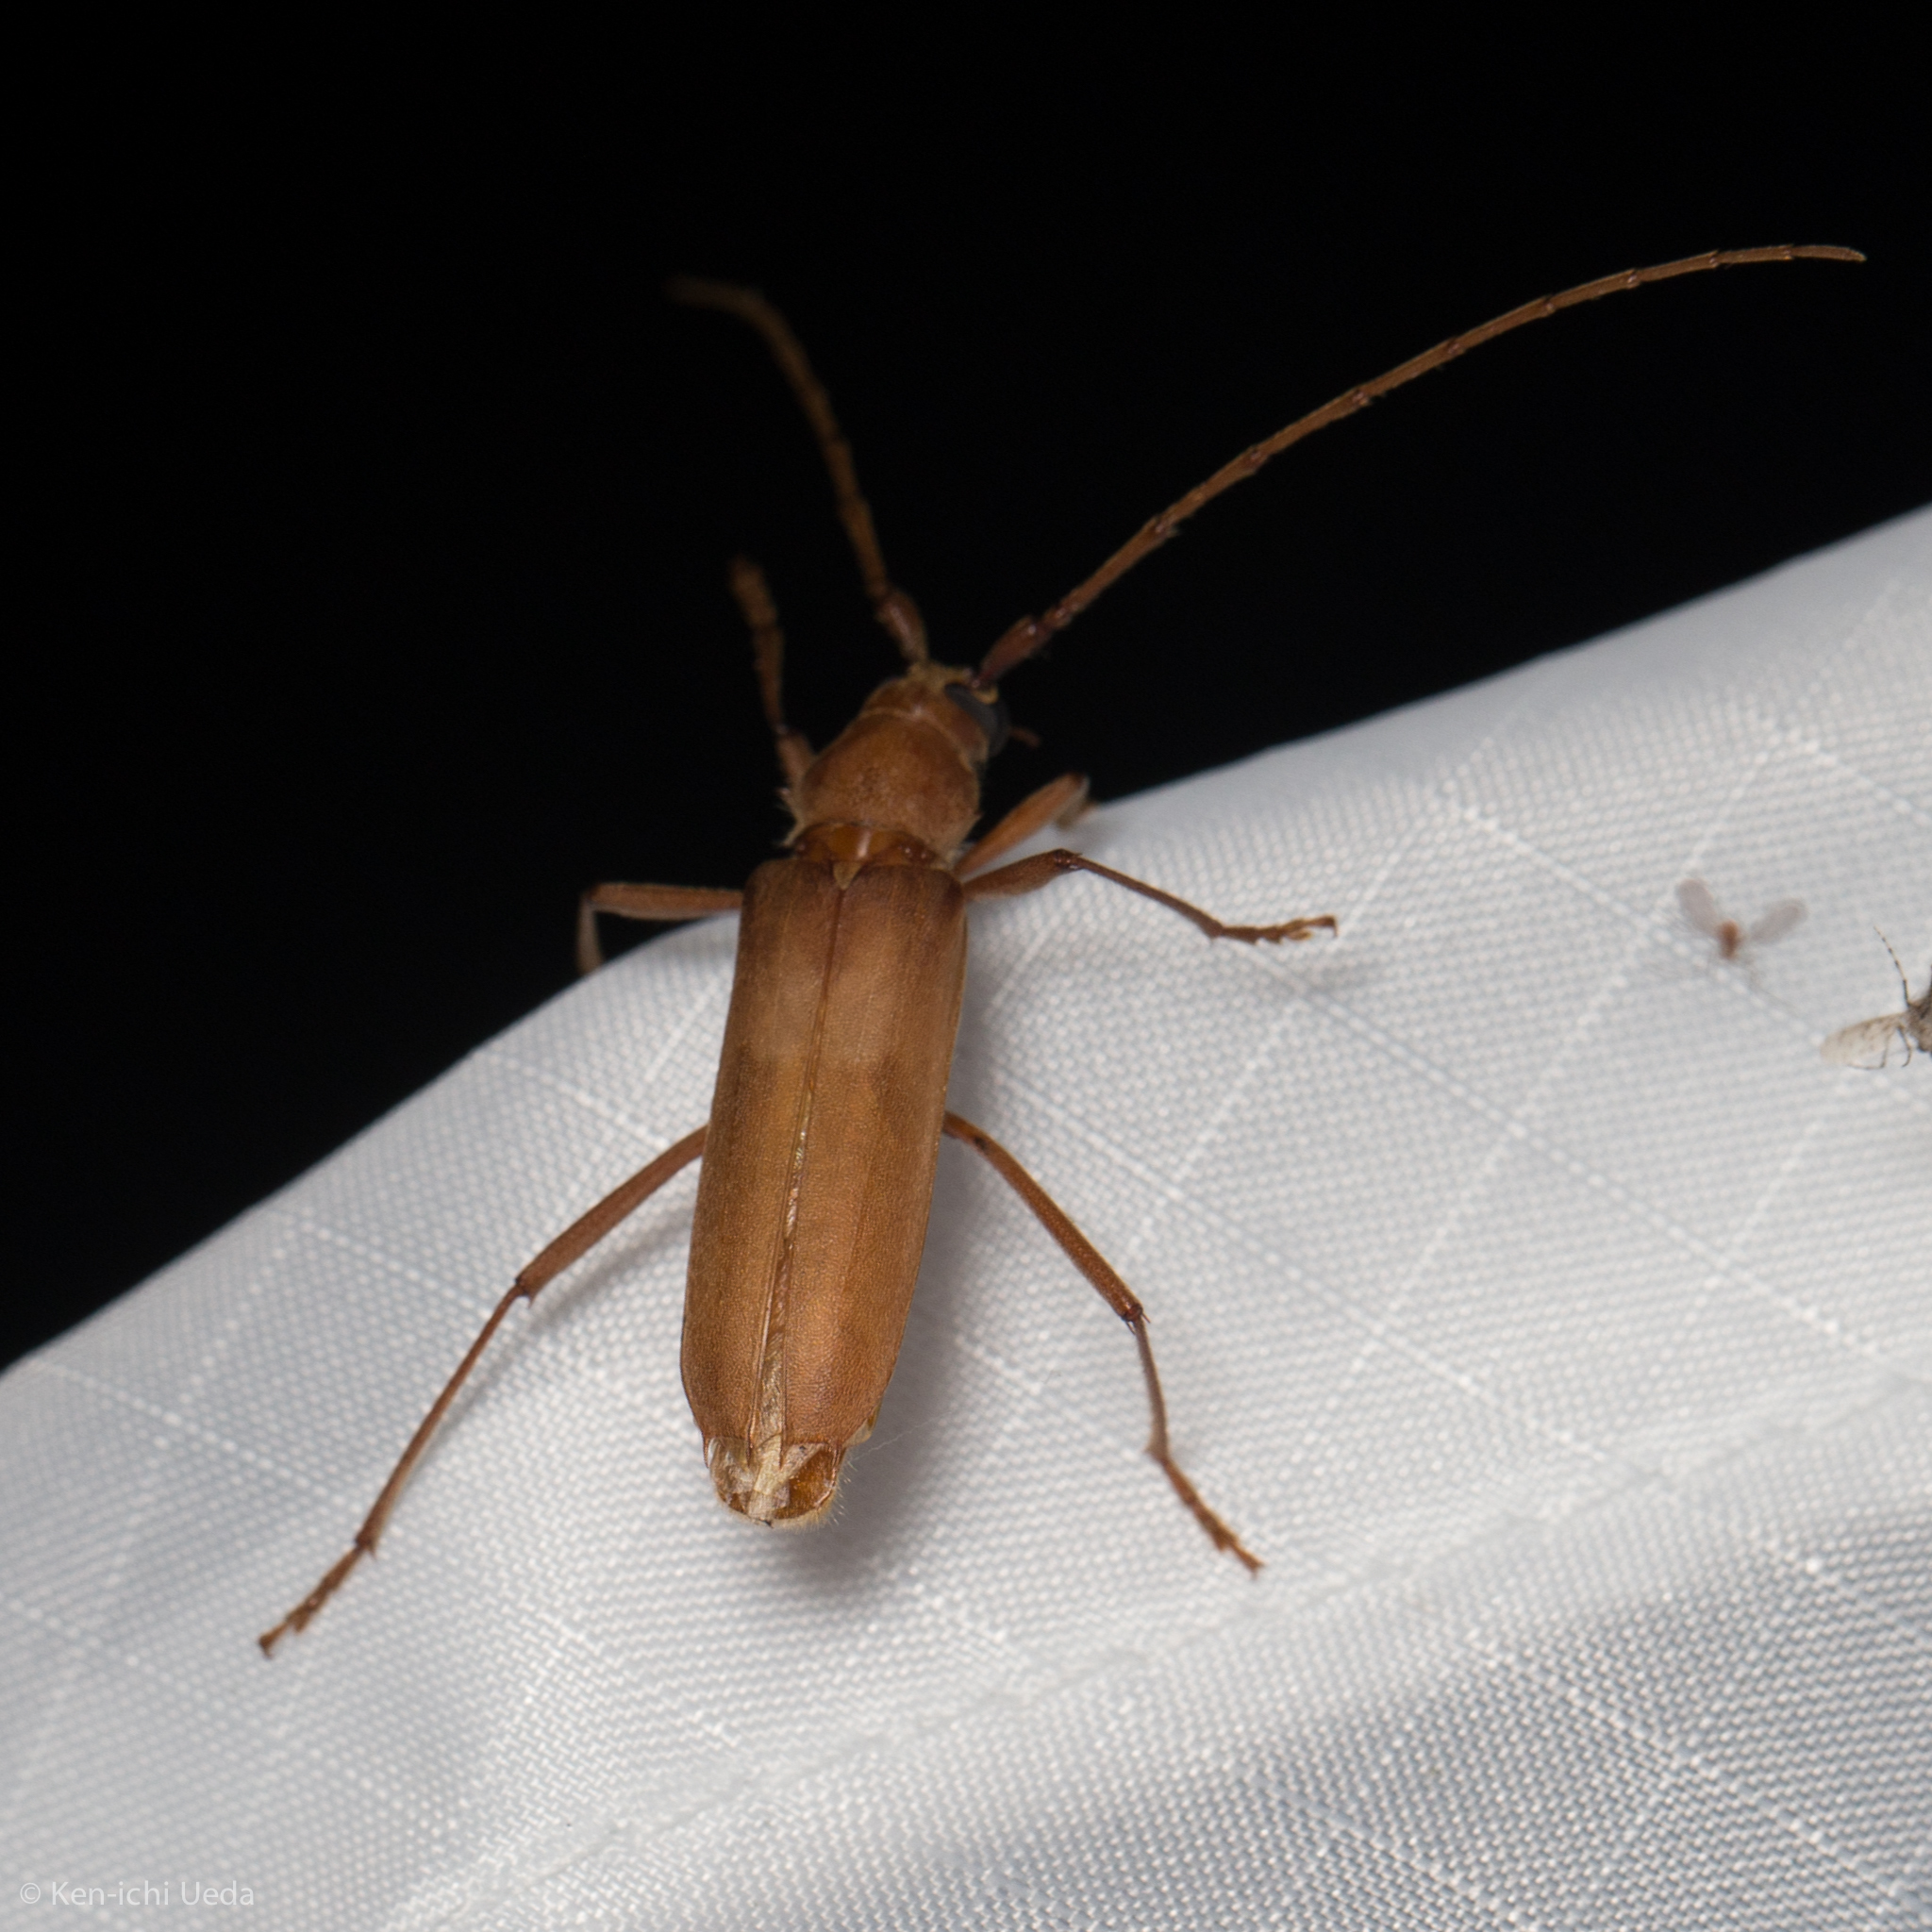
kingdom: Animalia
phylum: Arthropoda
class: Insecta
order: Coleoptera
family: Cerambycidae
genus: Knulliana
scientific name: Knulliana cincta
